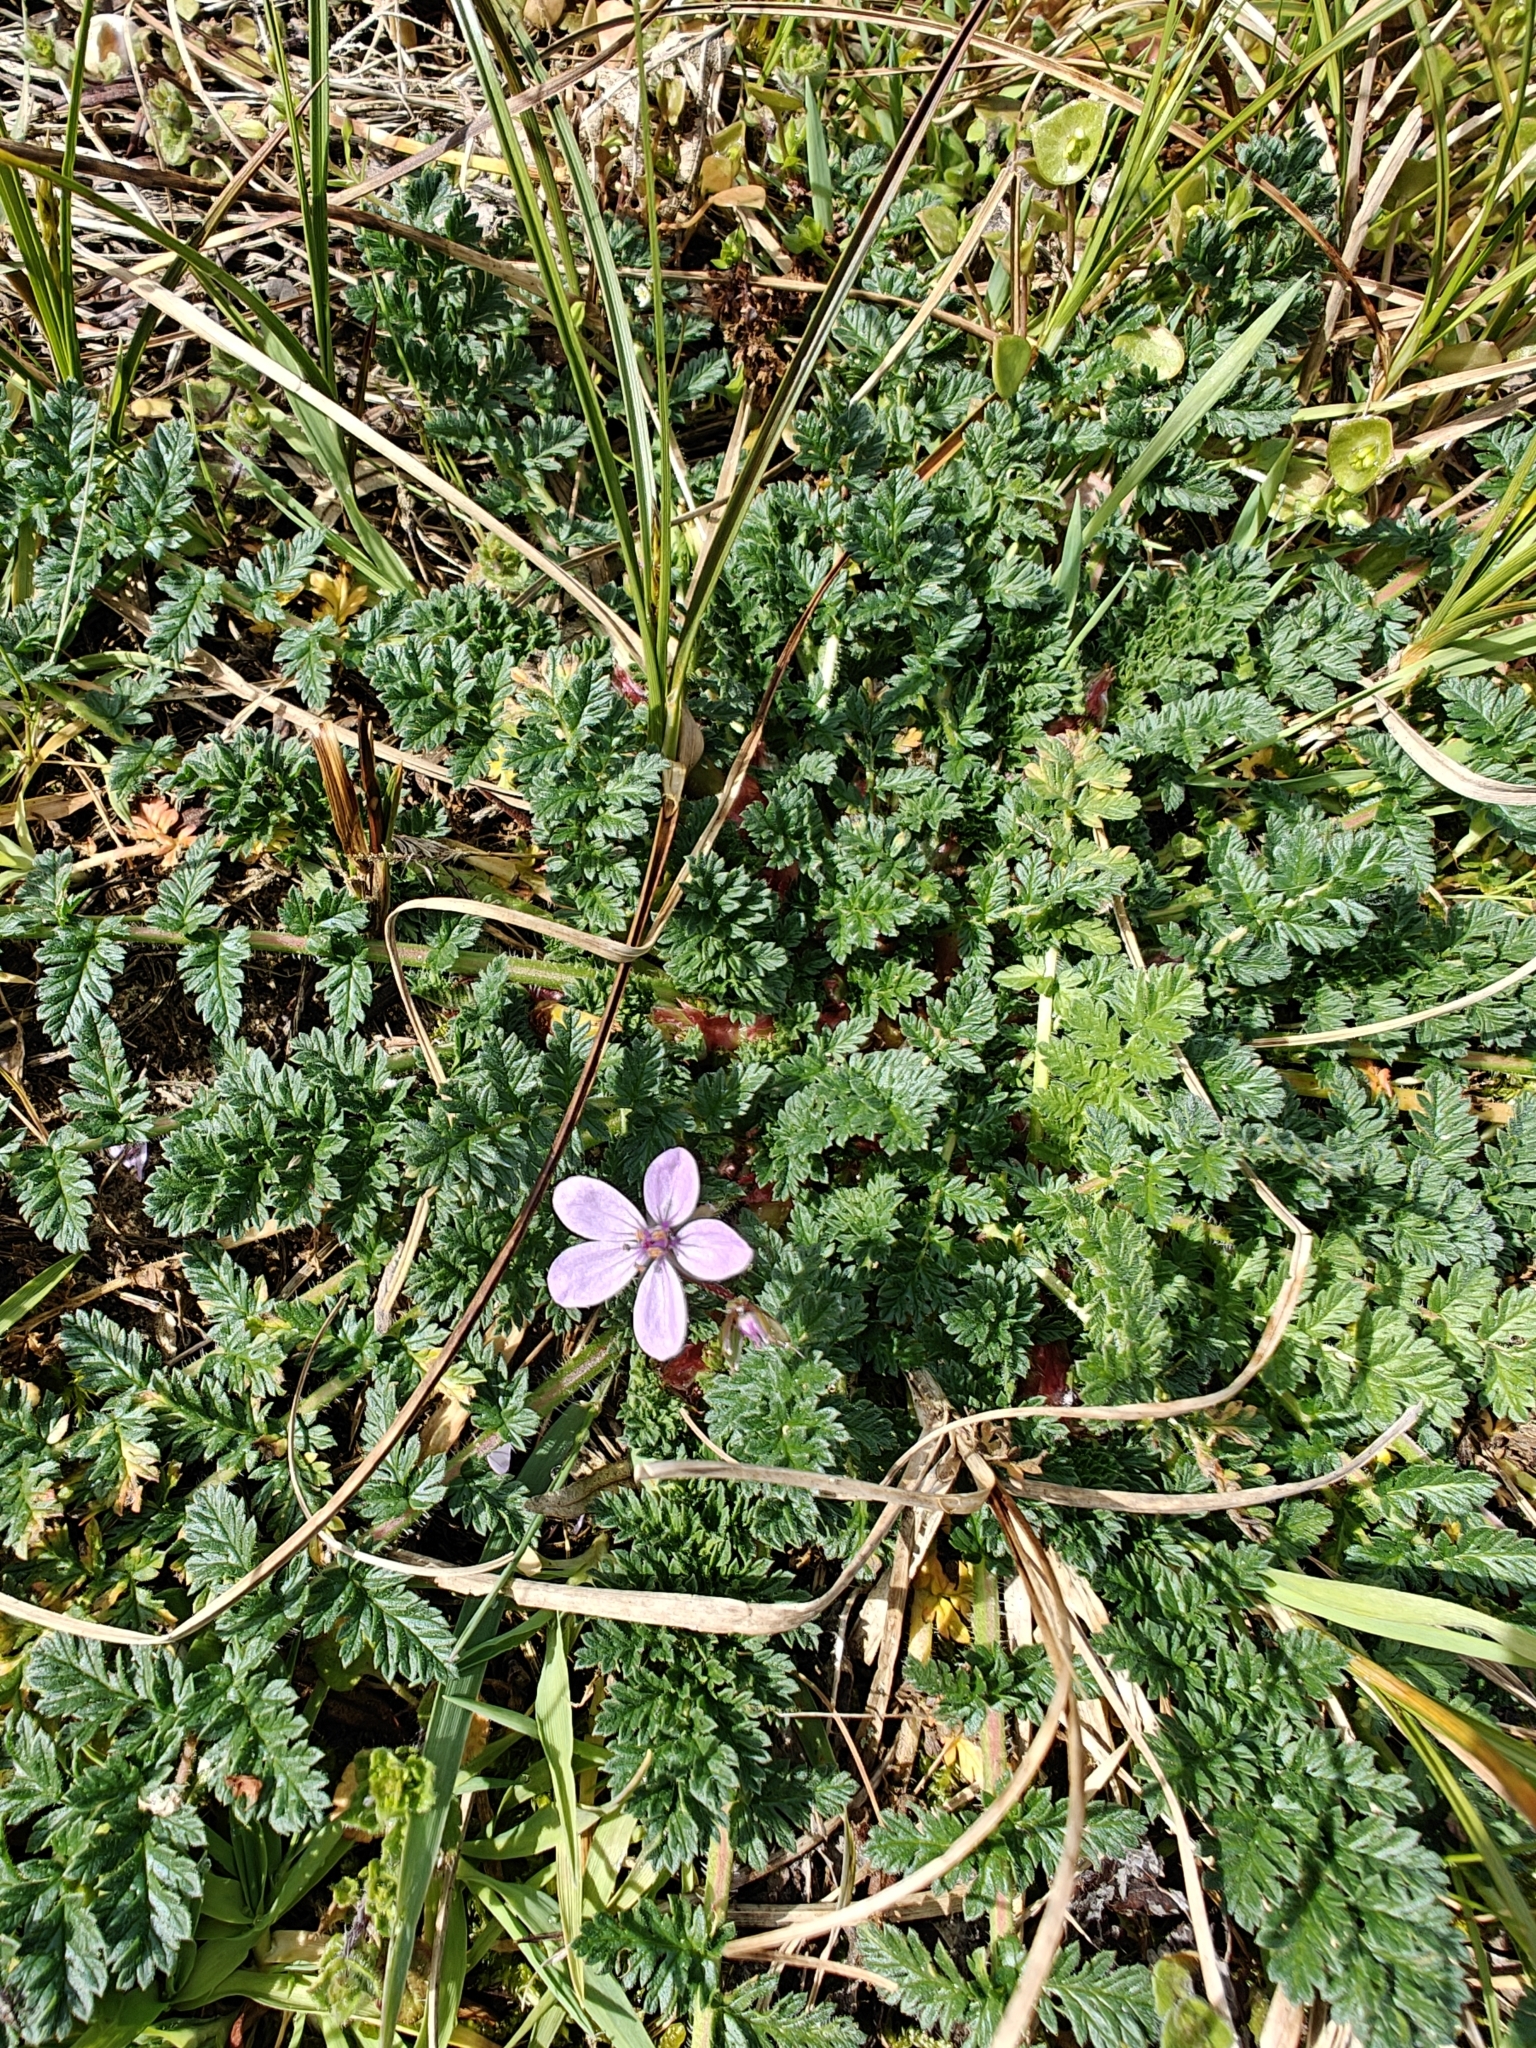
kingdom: Plantae
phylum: Tracheophyta
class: Magnoliopsida
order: Geraniales
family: Geraniaceae
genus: Erodium
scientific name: Erodium cicutarium
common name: Common stork's-bill
